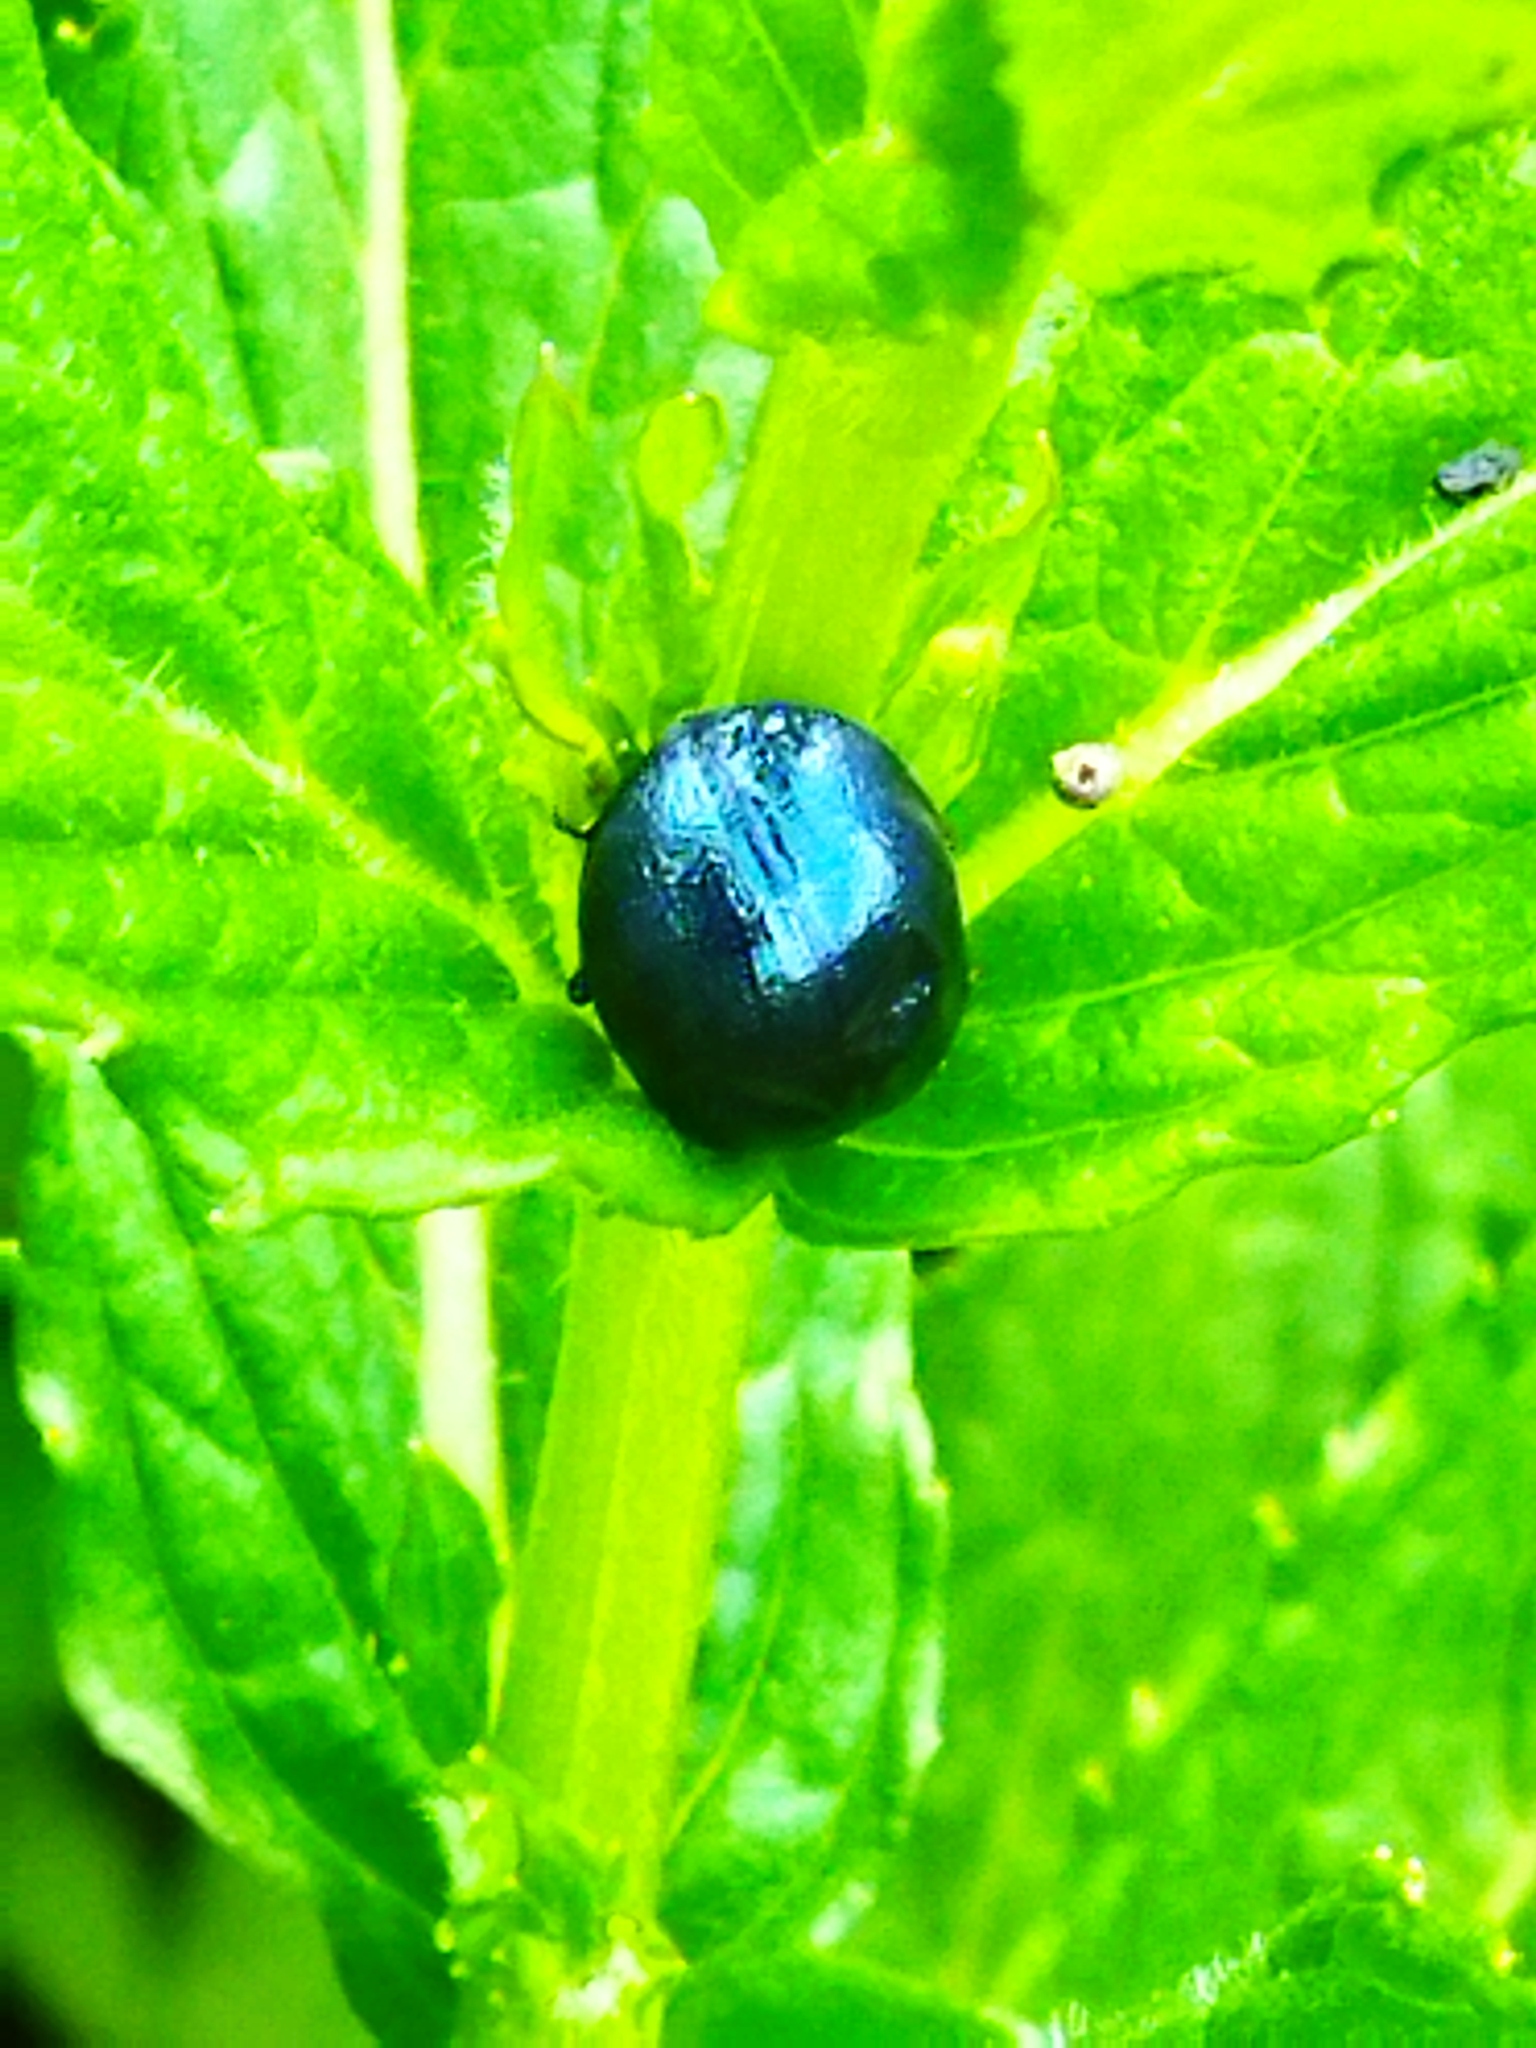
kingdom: Animalia
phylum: Arthropoda
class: Insecta
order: Coleoptera
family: Chrysomelidae
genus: Chrysolina
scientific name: Chrysolina coerulans
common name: Blue mint beetle
